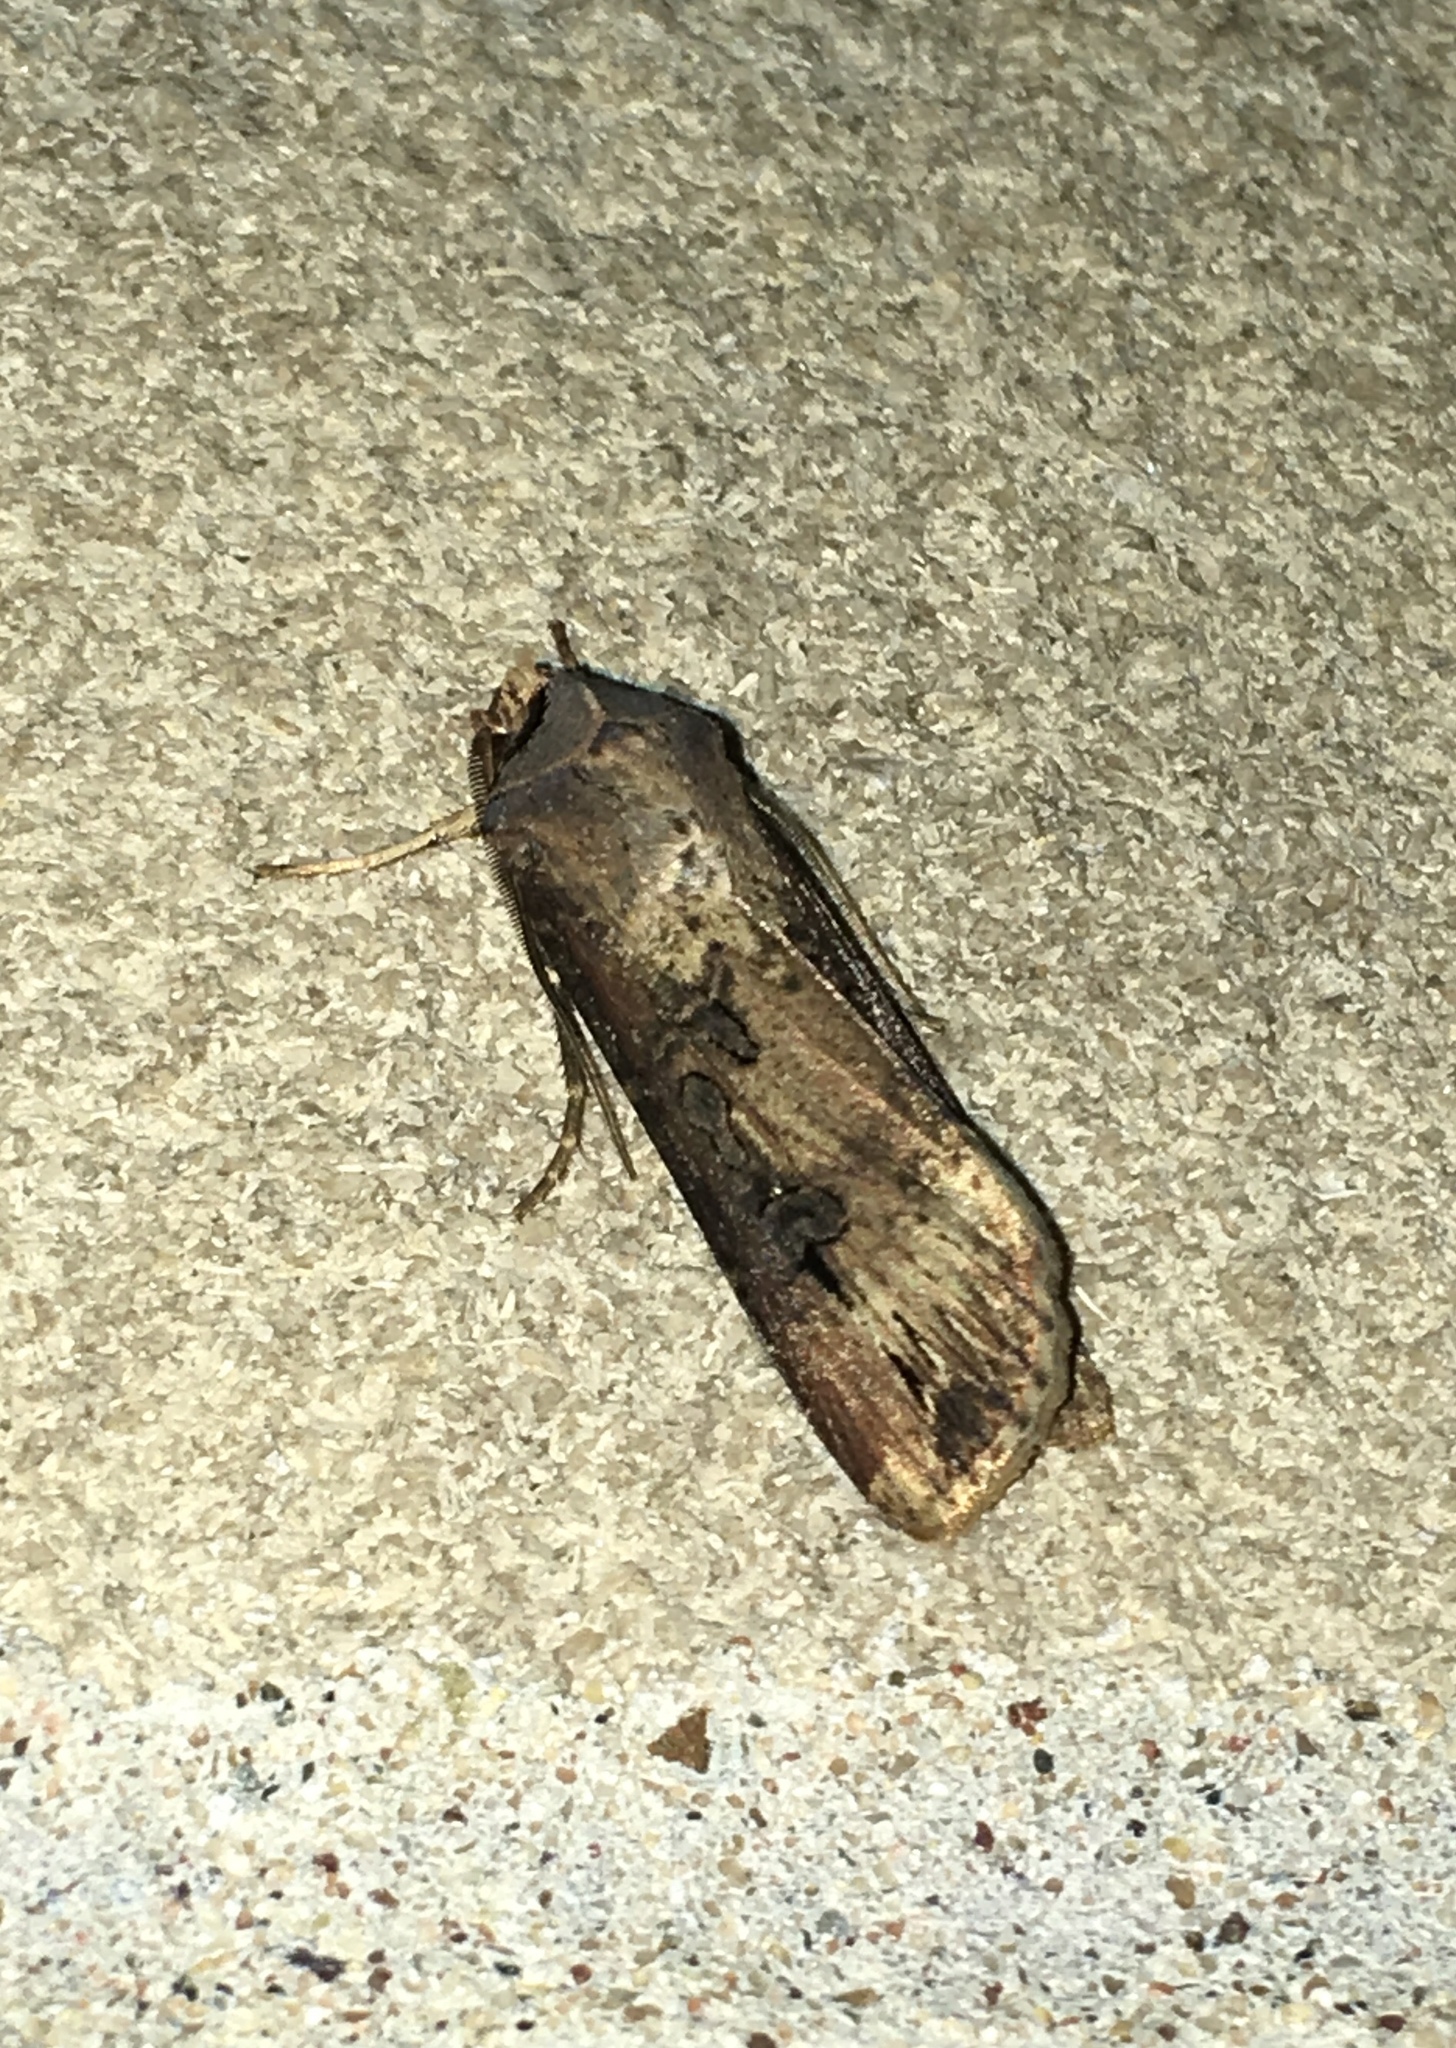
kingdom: Animalia
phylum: Arthropoda
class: Insecta
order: Lepidoptera
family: Noctuidae
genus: Agrotis
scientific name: Agrotis ipsilon
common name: Dark sword-grass
